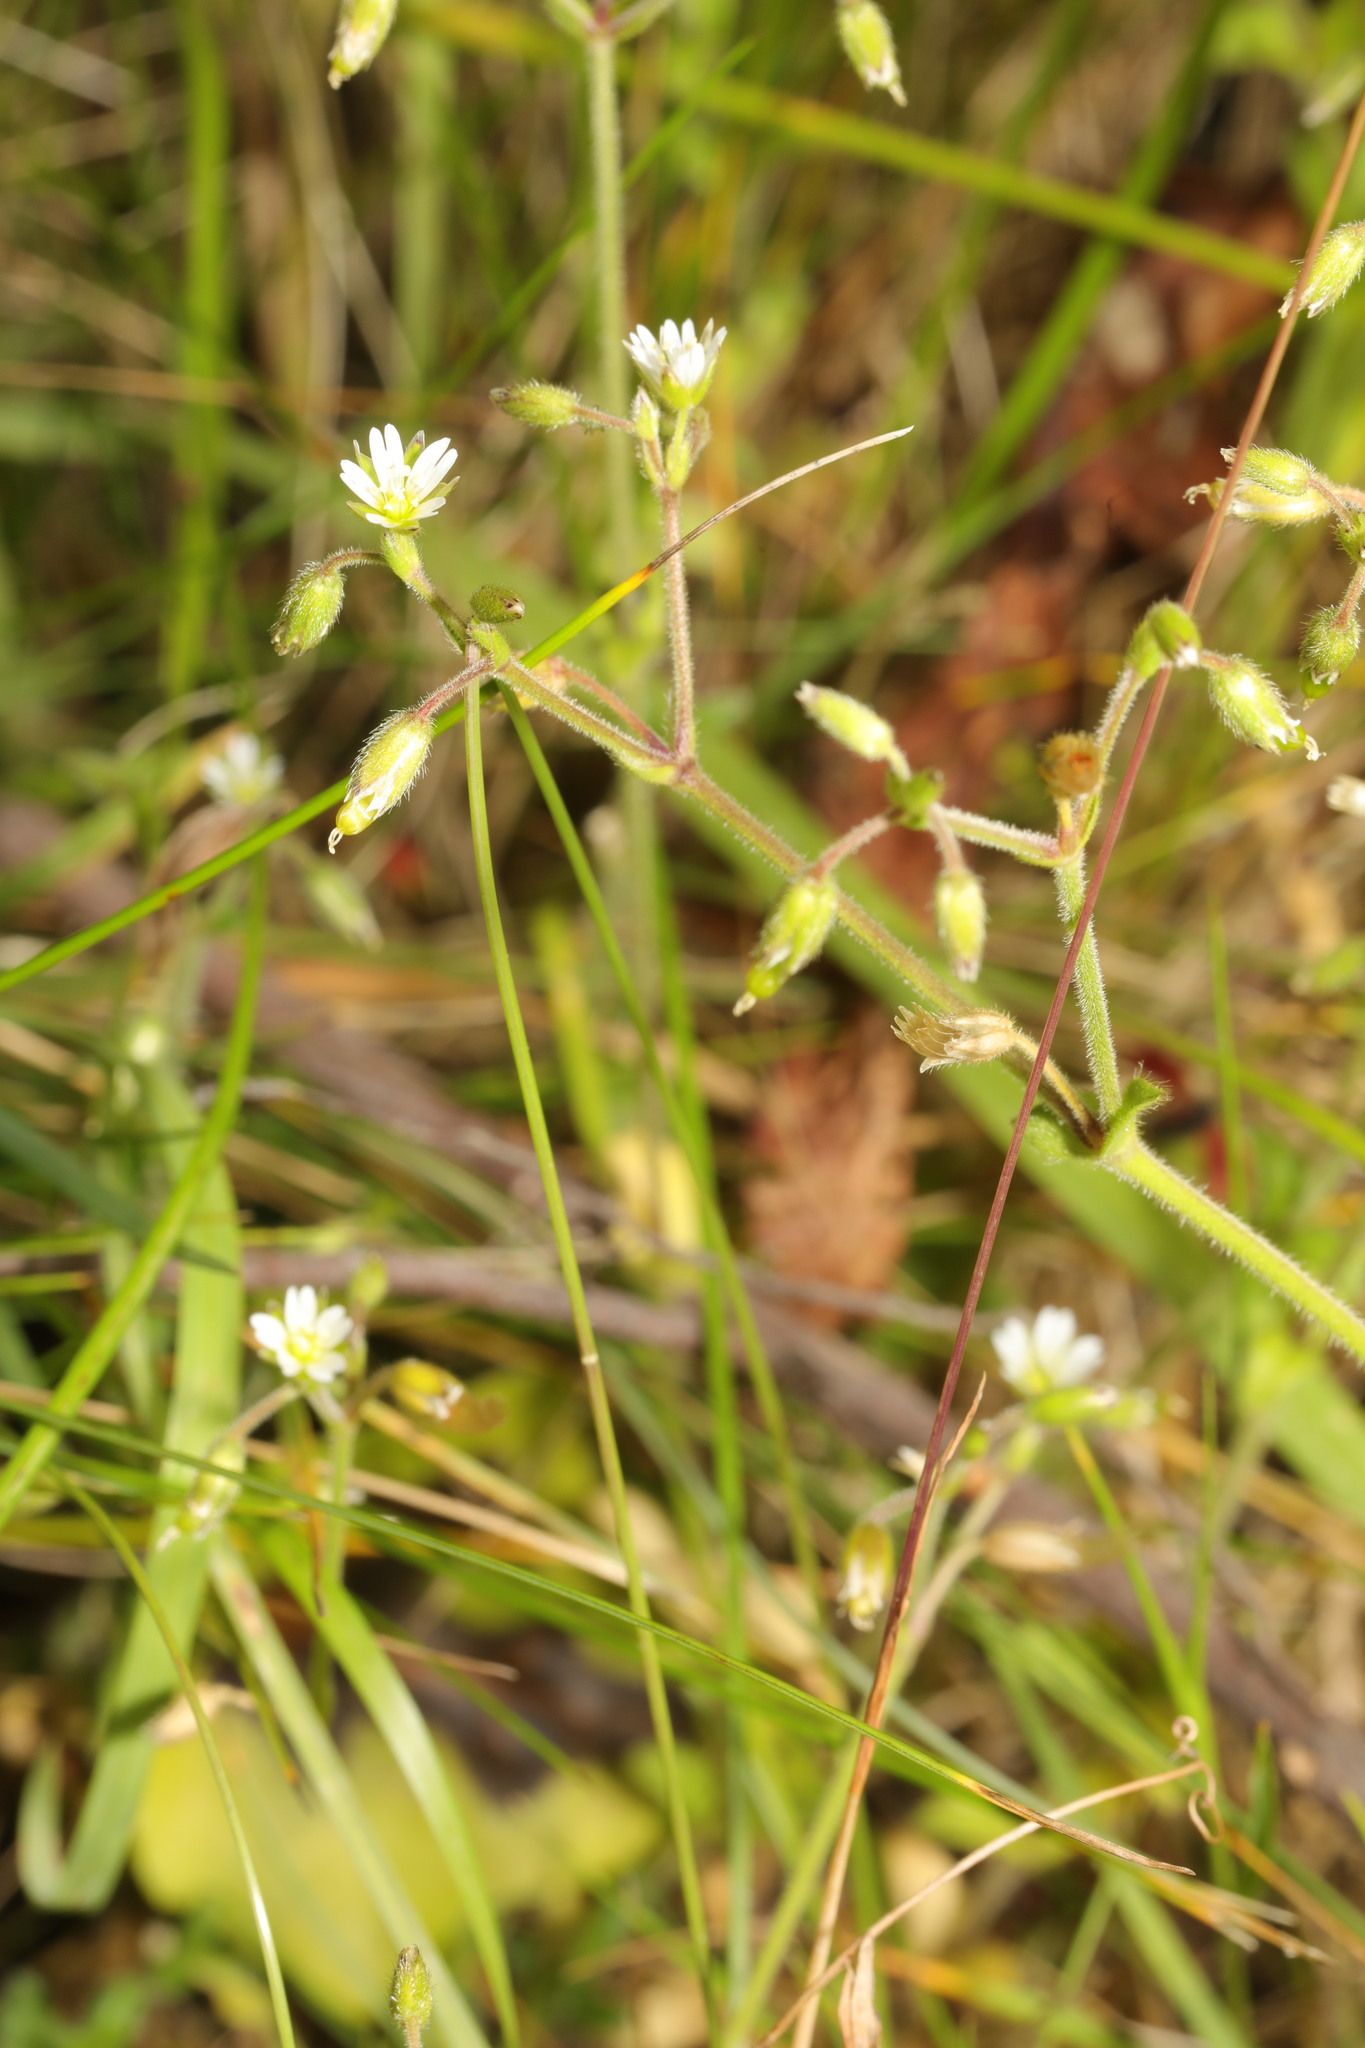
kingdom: Plantae
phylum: Tracheophyta
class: Magnoliopsida
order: Caryophyllales
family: Caryophyllaceae
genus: Cerastium
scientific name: Cerastium fontanum
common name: Common mouse-ear
